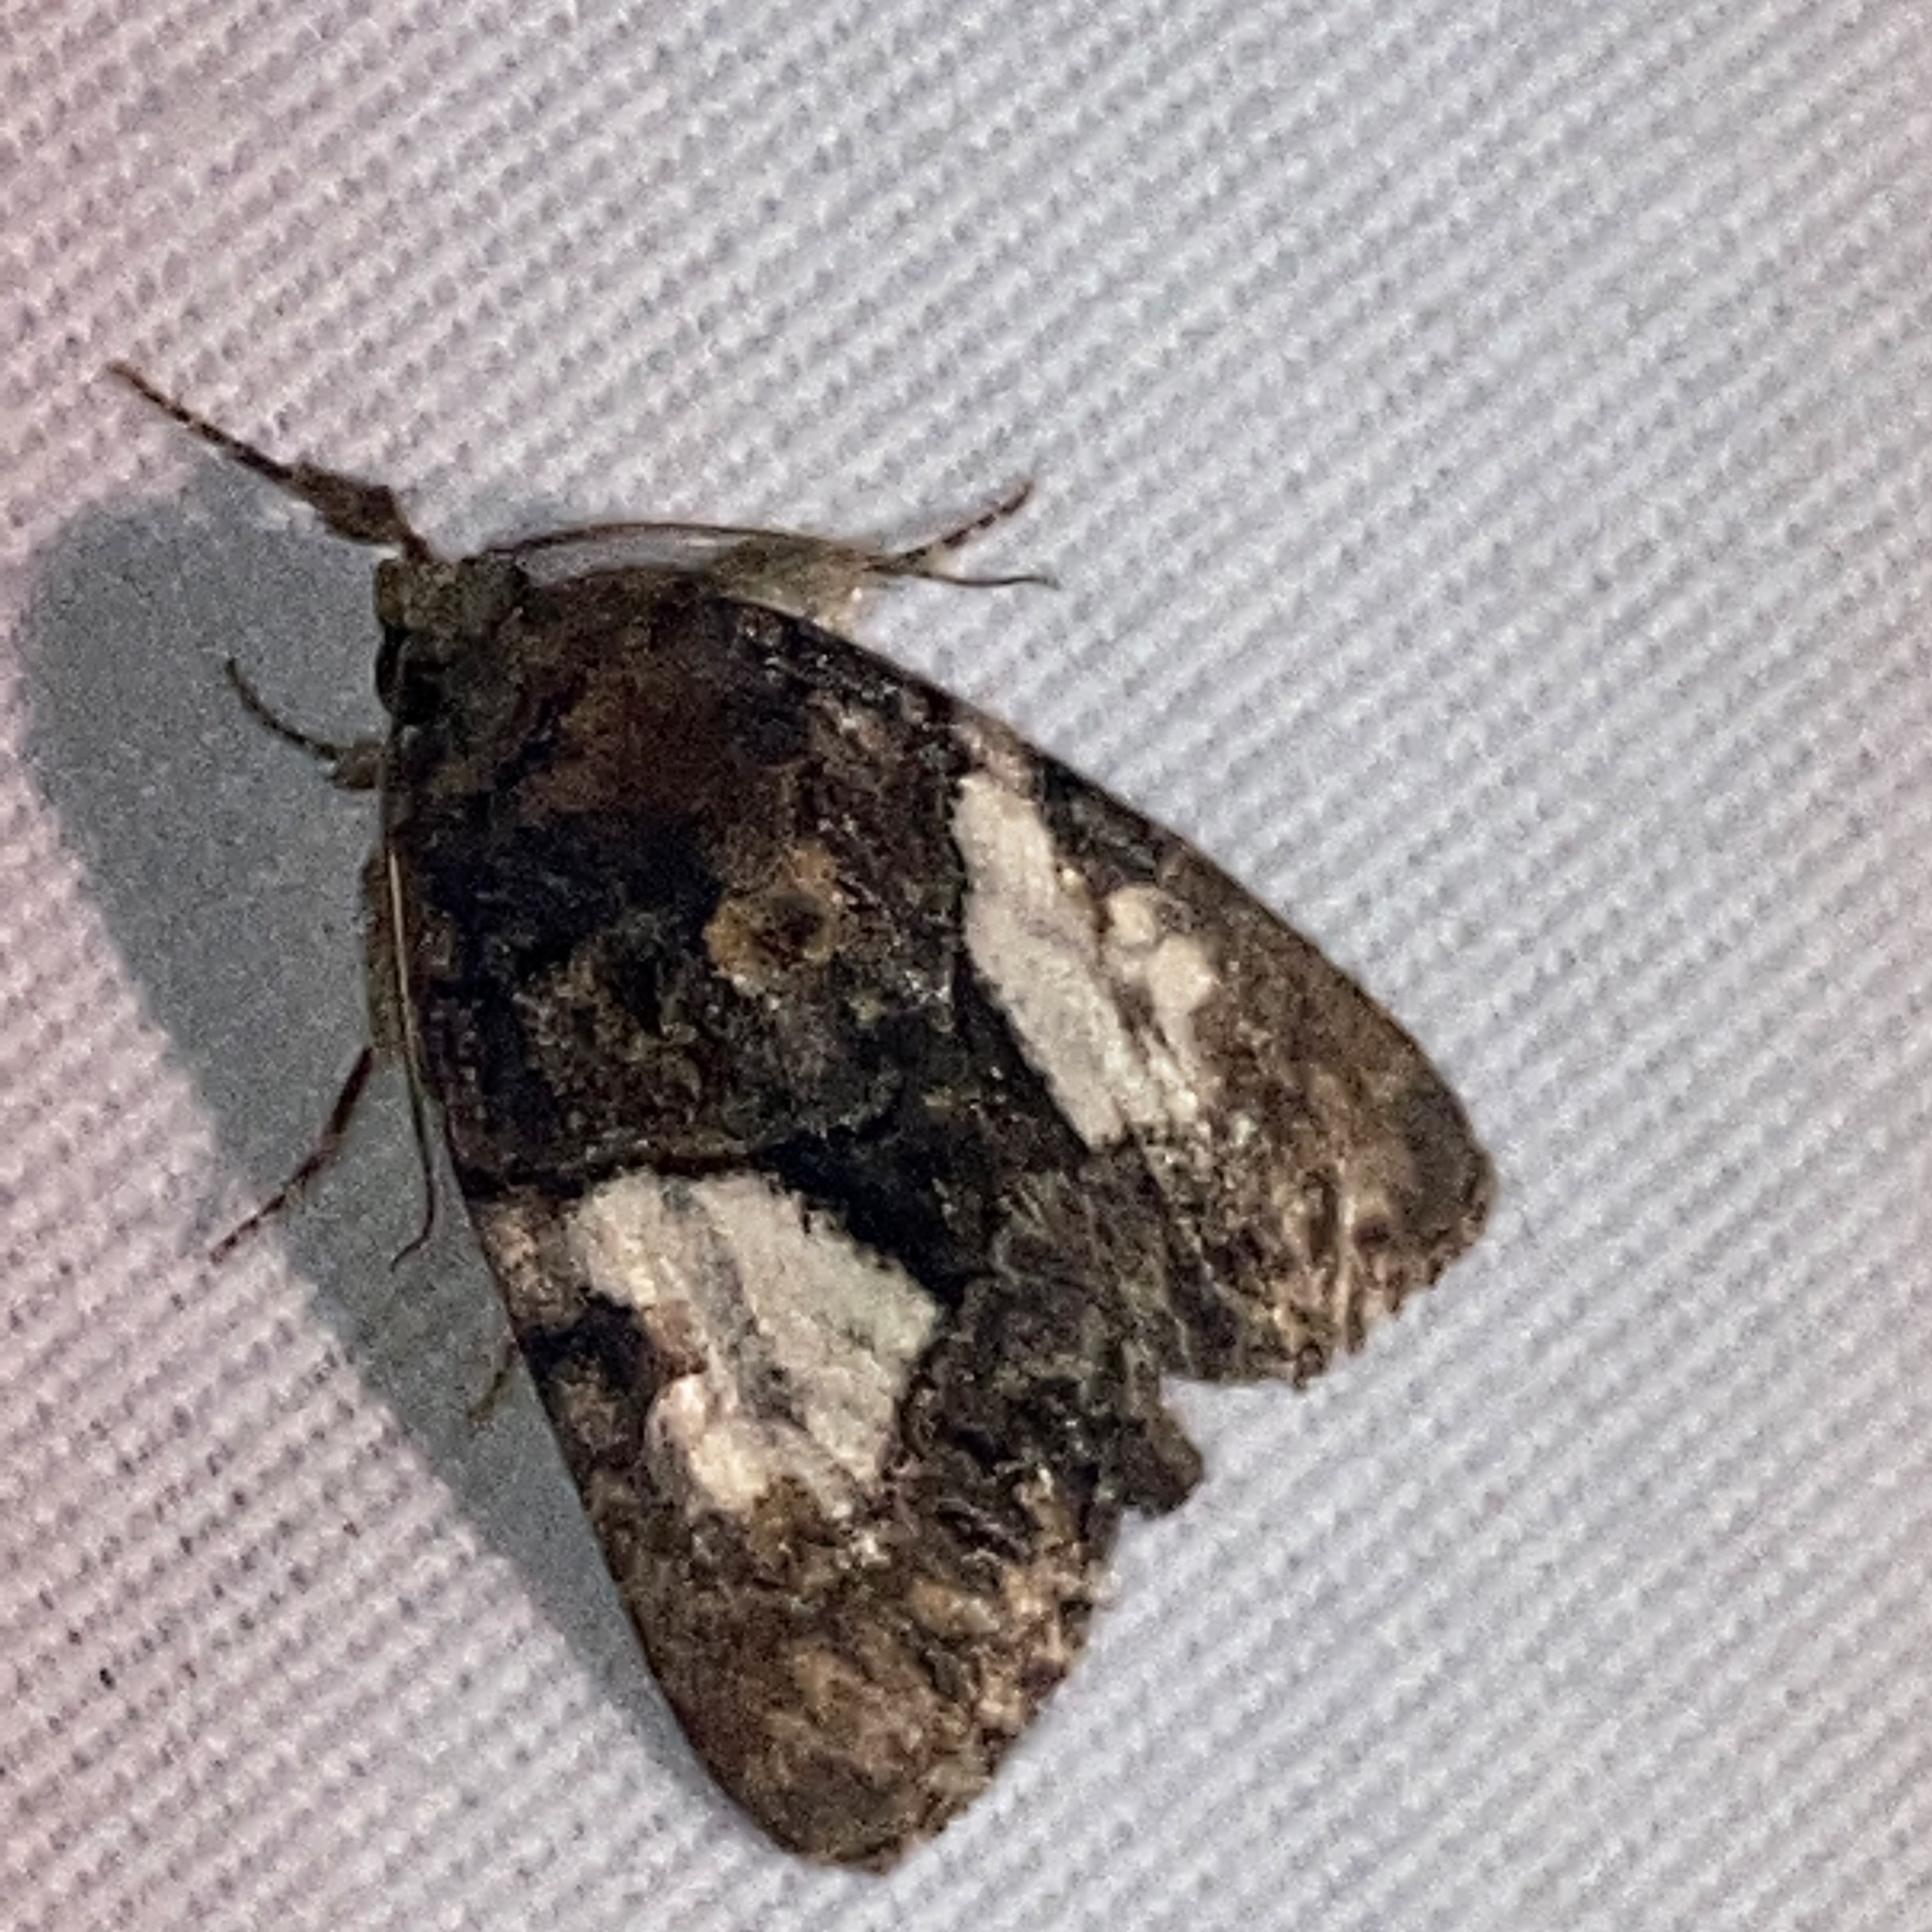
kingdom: Animalia
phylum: Arthropoda
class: Insecta
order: Lepidoptera
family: Noctuidae
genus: Chytonix
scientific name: Chytonix palliatricula
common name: Cloaked marvel
